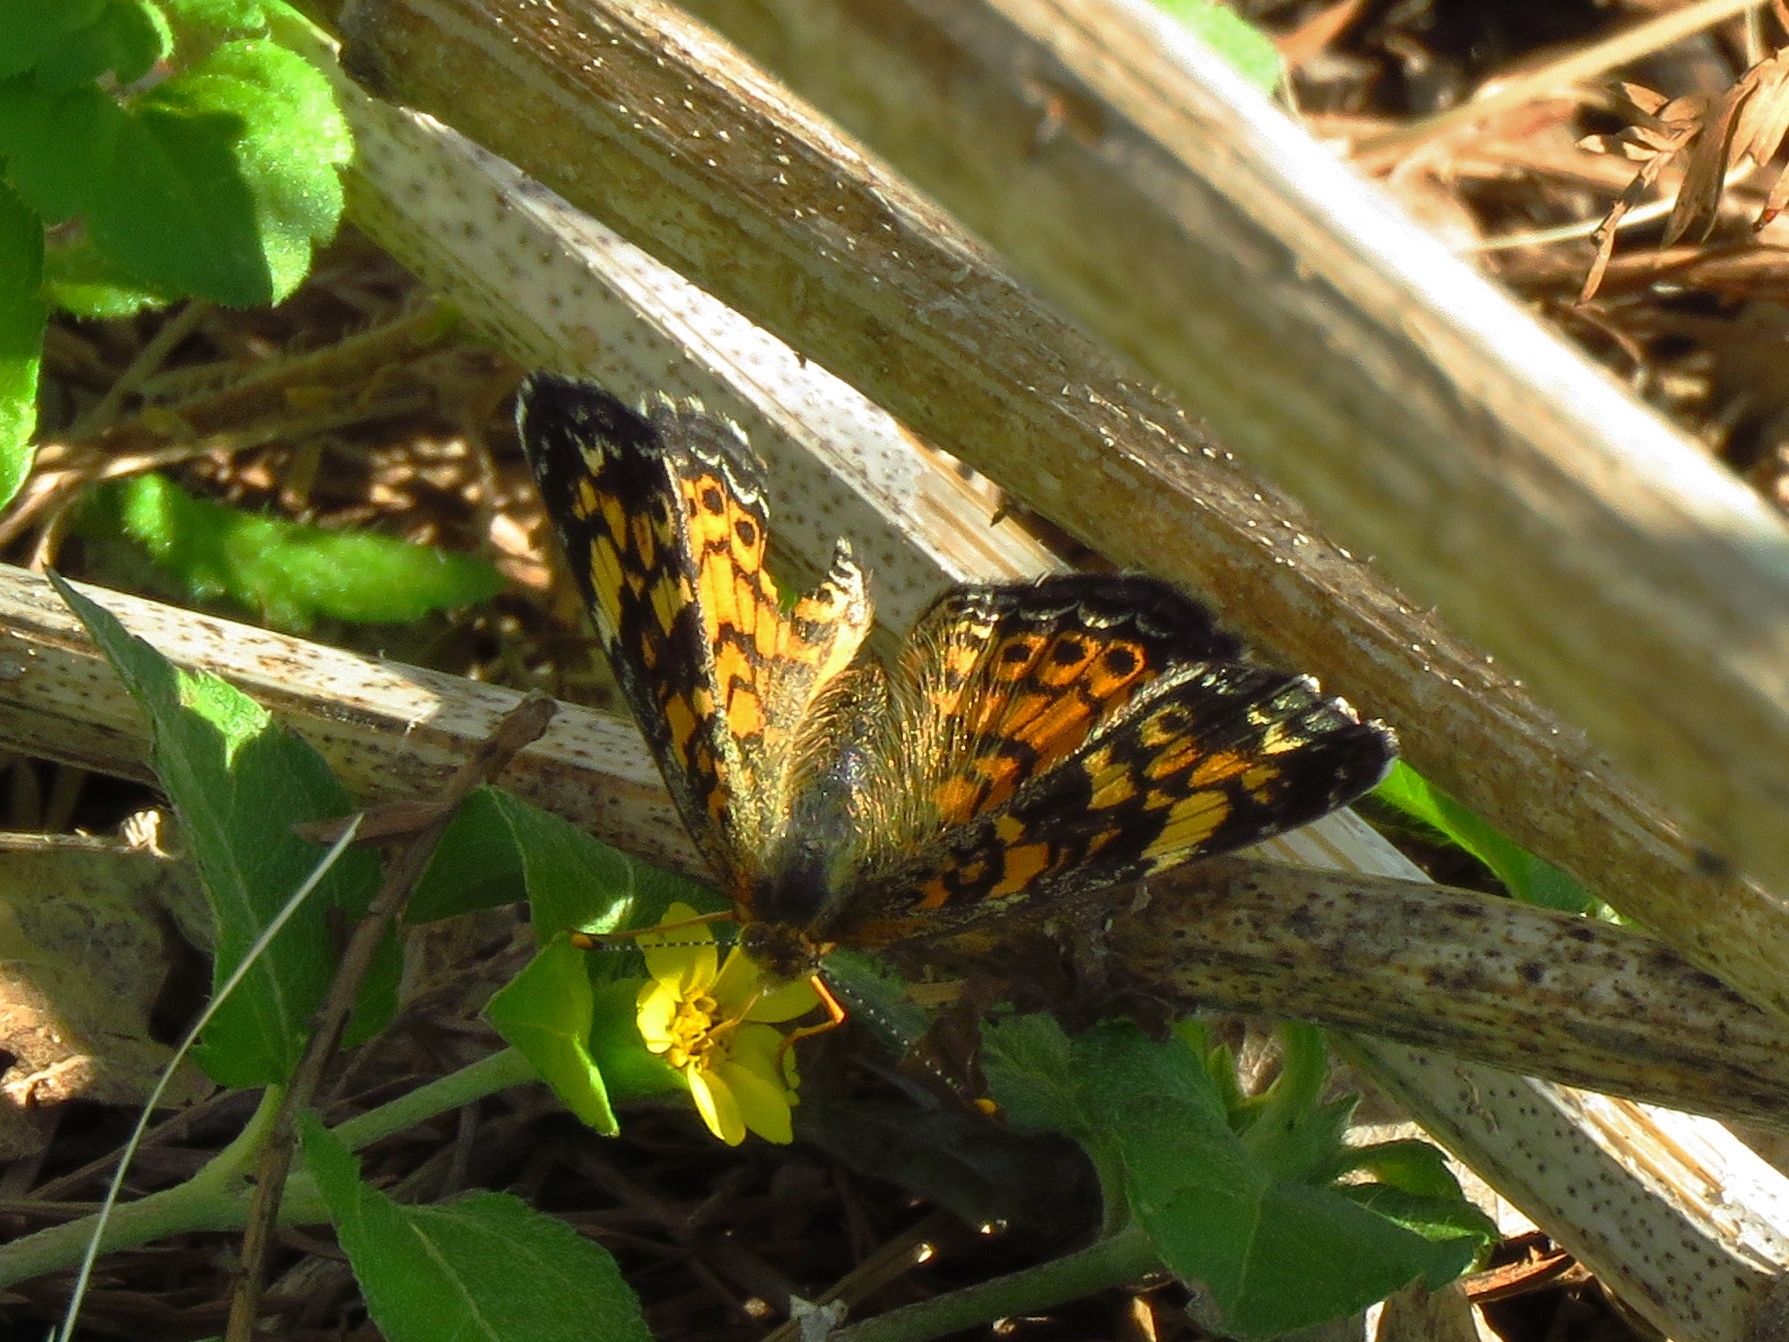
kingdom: Animalia
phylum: Arthropoda
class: Insecta
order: Lepidoptera
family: Nymphalidae
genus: Phyciodes
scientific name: Phyciodes tharos
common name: Pearl crescent
